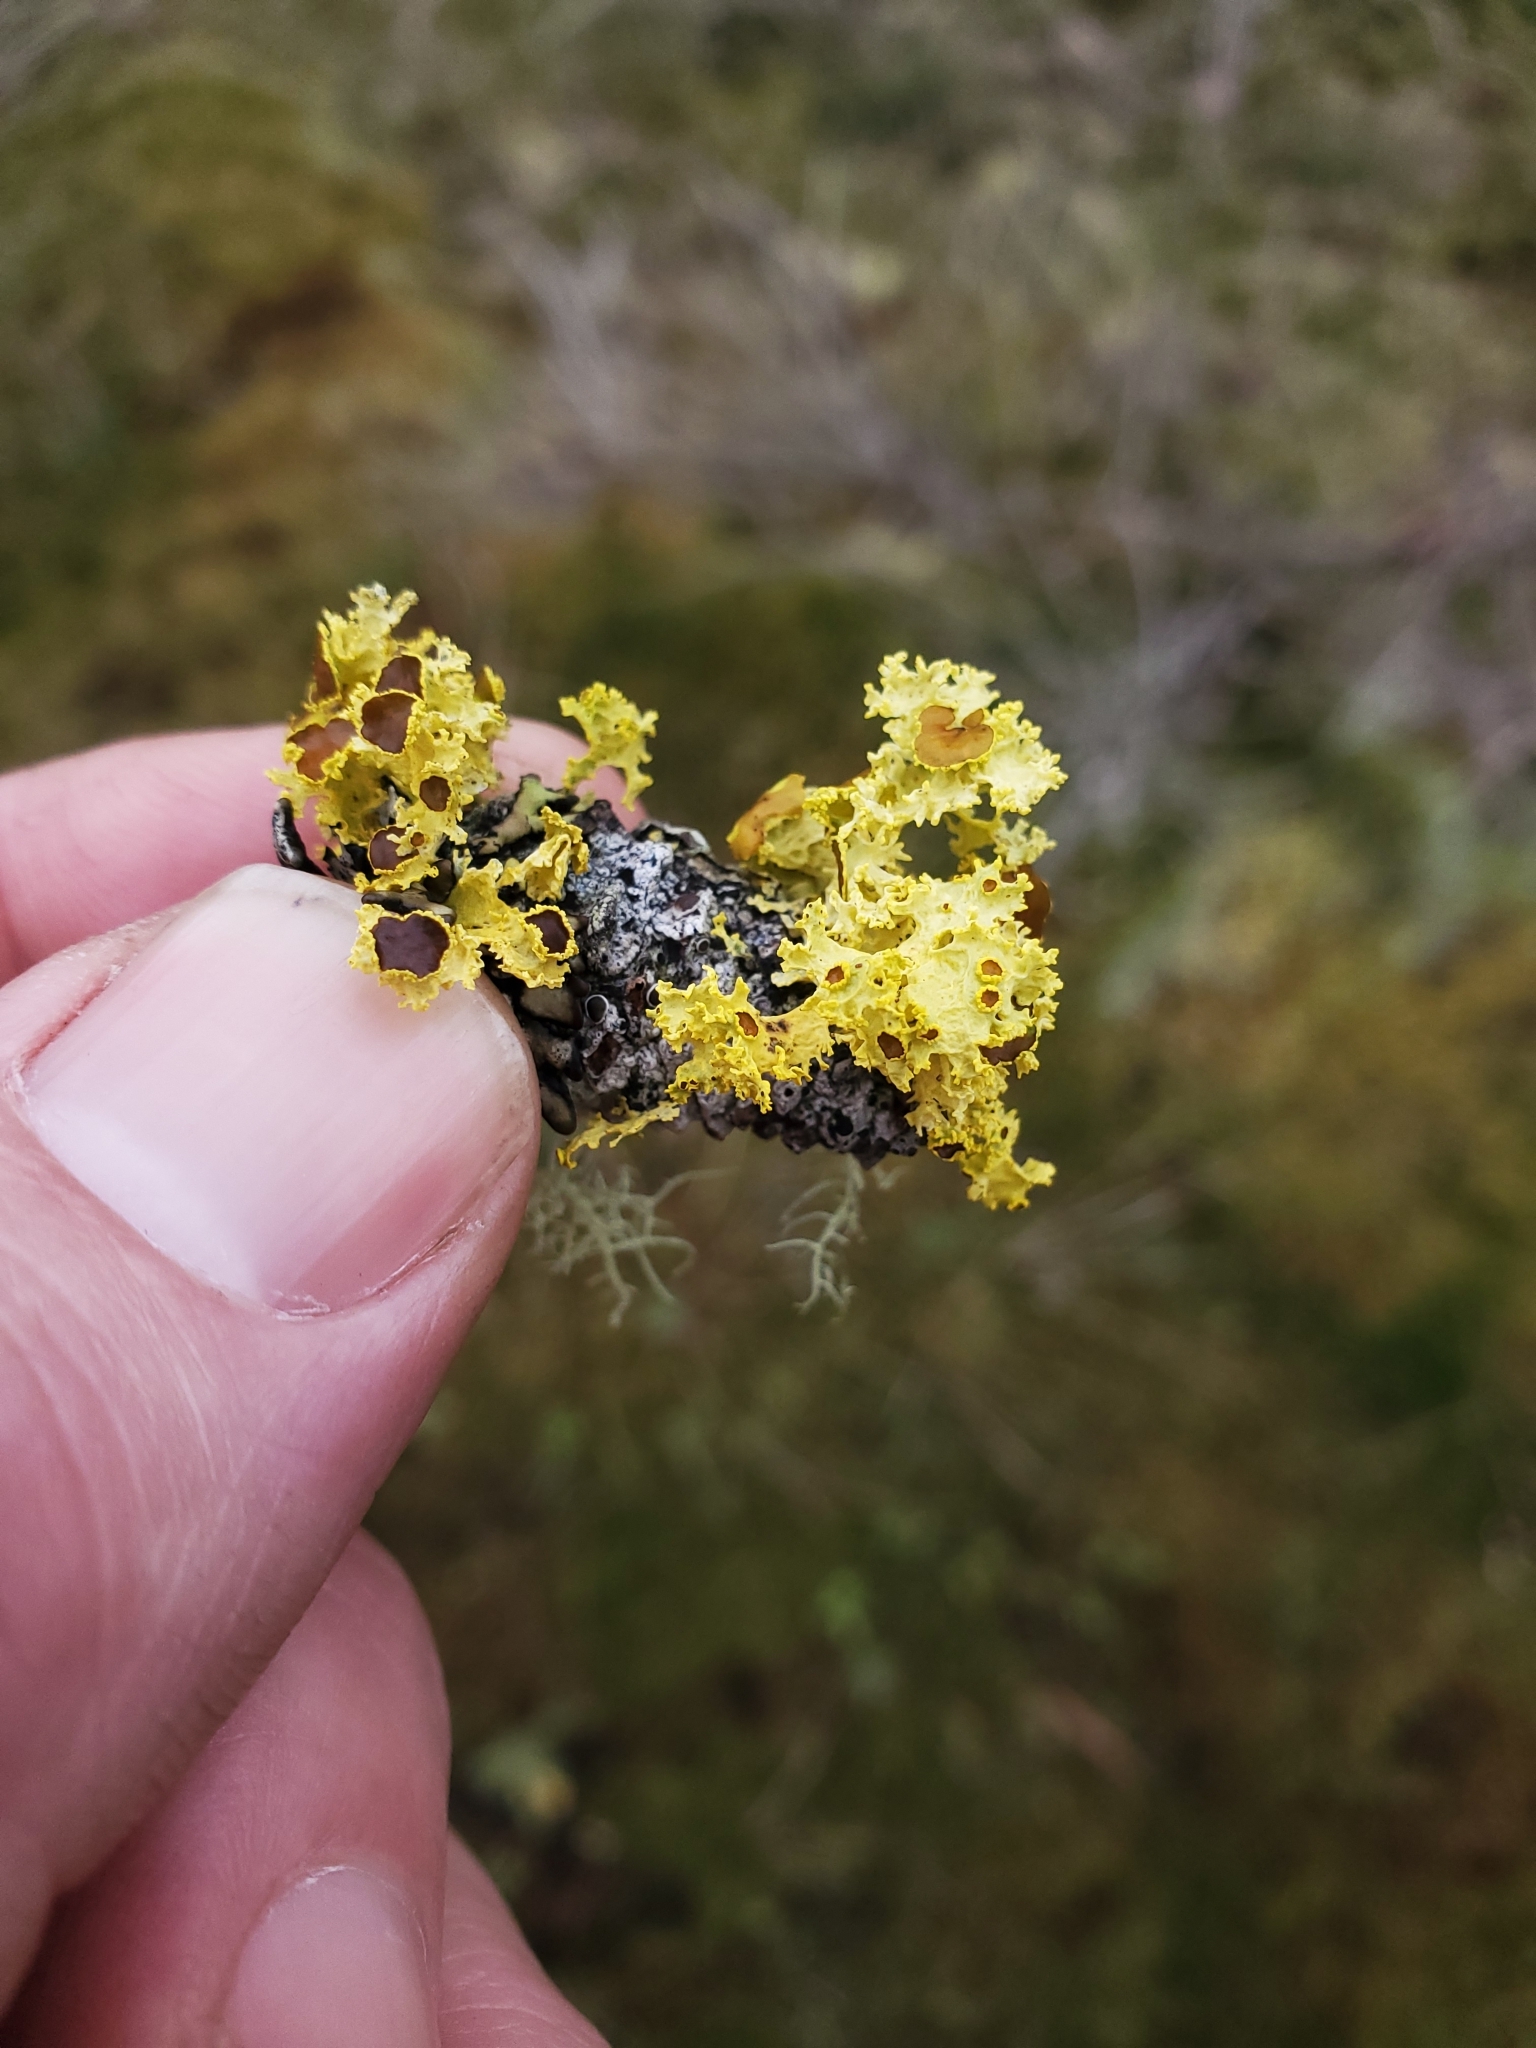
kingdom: Fungi
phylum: Ascomycota
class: Lecanoromycetes
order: Lecanorales
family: Parmeliaceae
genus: Vulpicida
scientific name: Vulpicida canadensis
